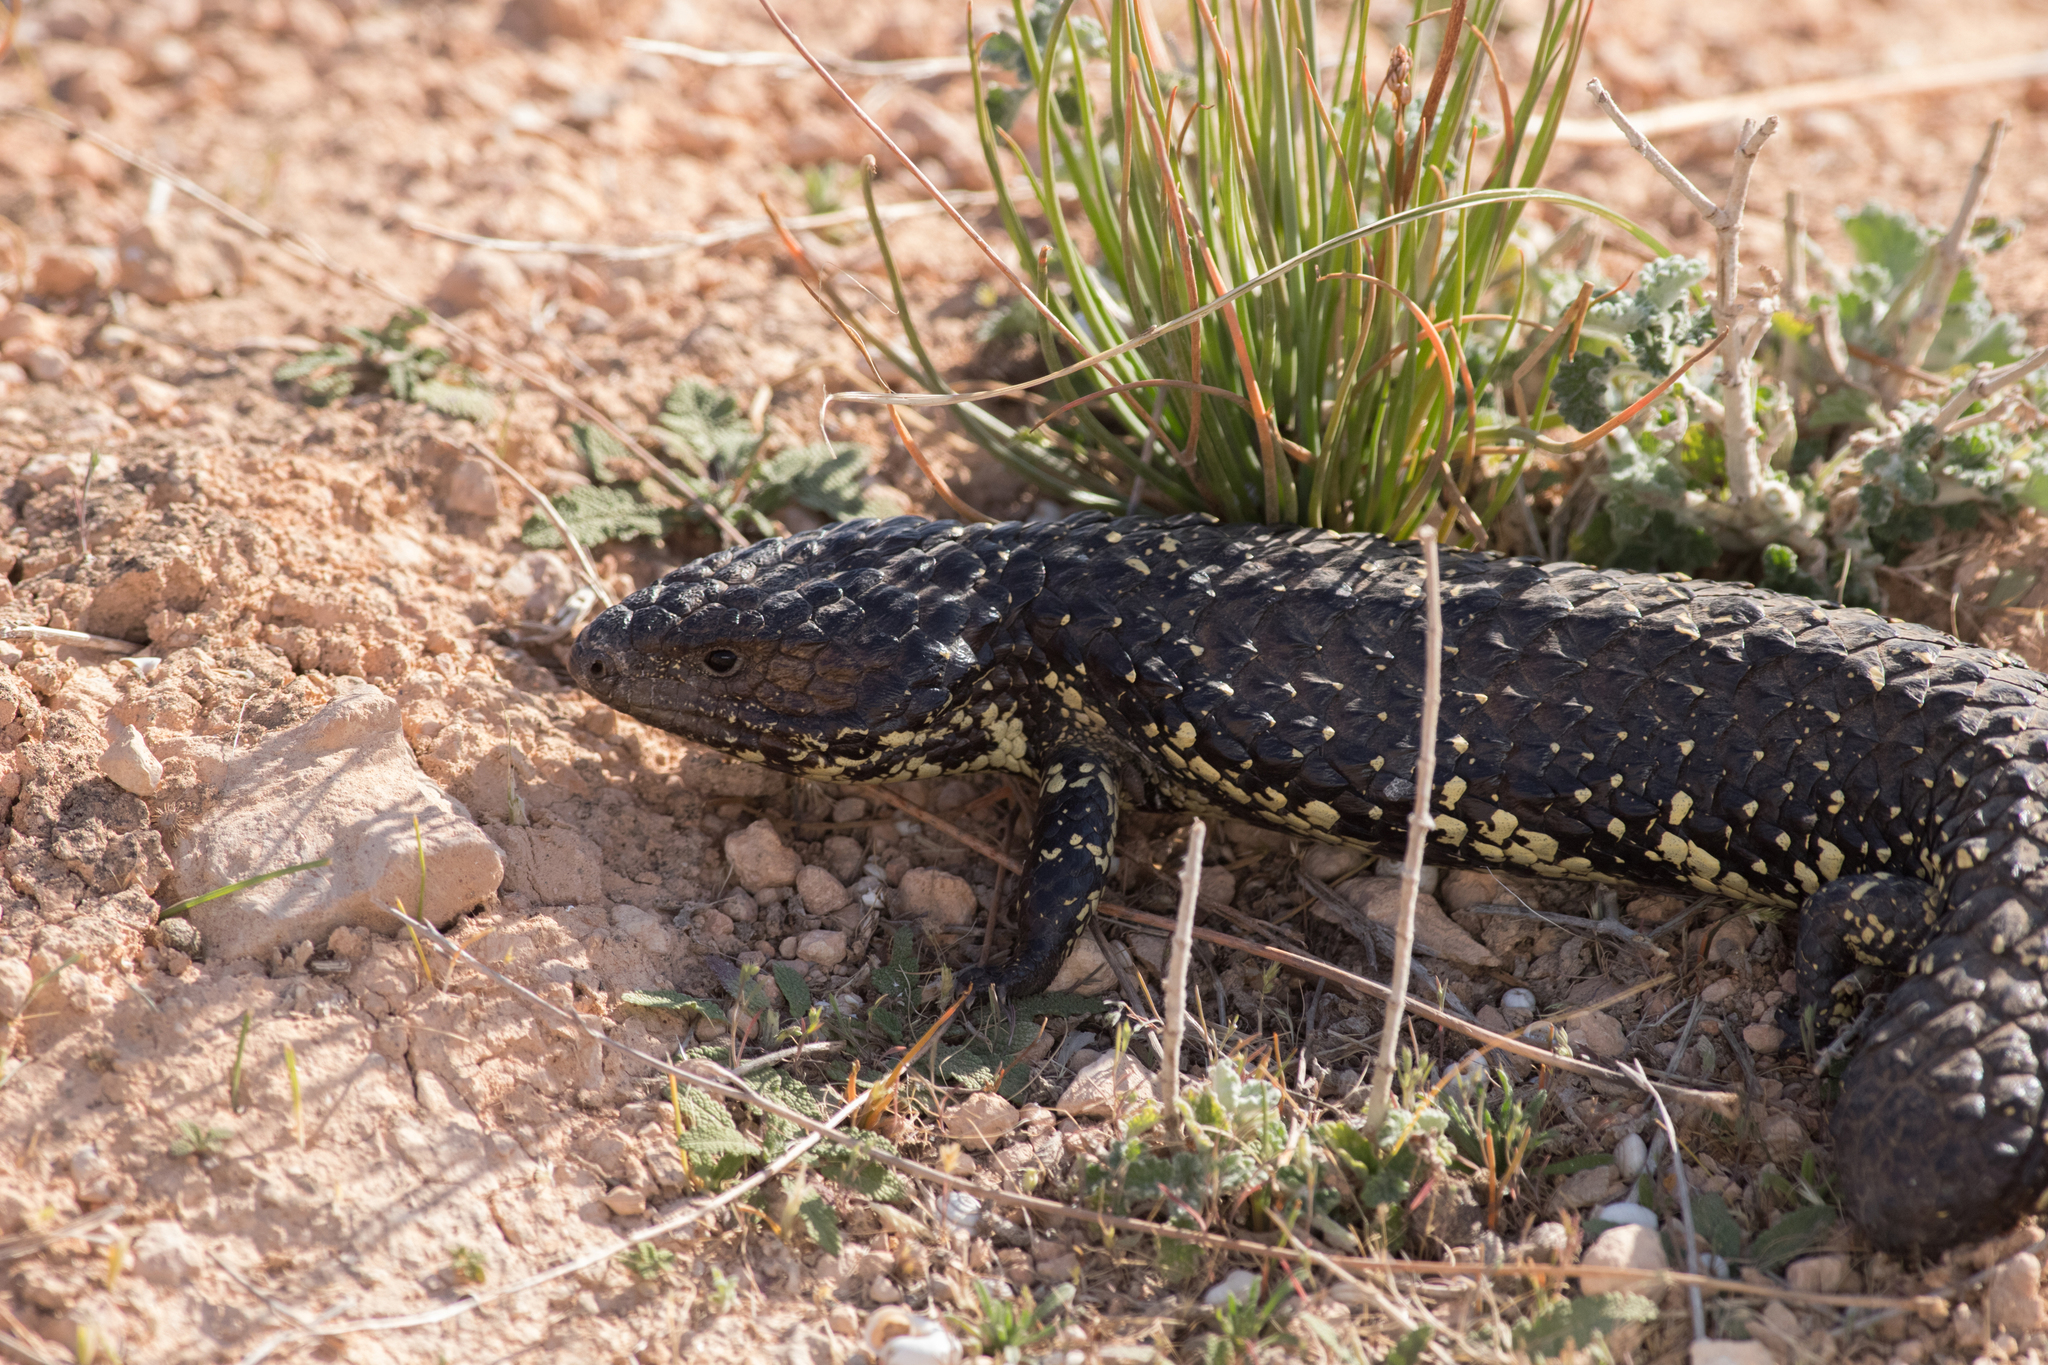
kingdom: Animalia
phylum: Chordata
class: Squamata
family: Scincidae
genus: Tiliqua
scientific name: Tiliqua rugosa
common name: Pinecone lizard
